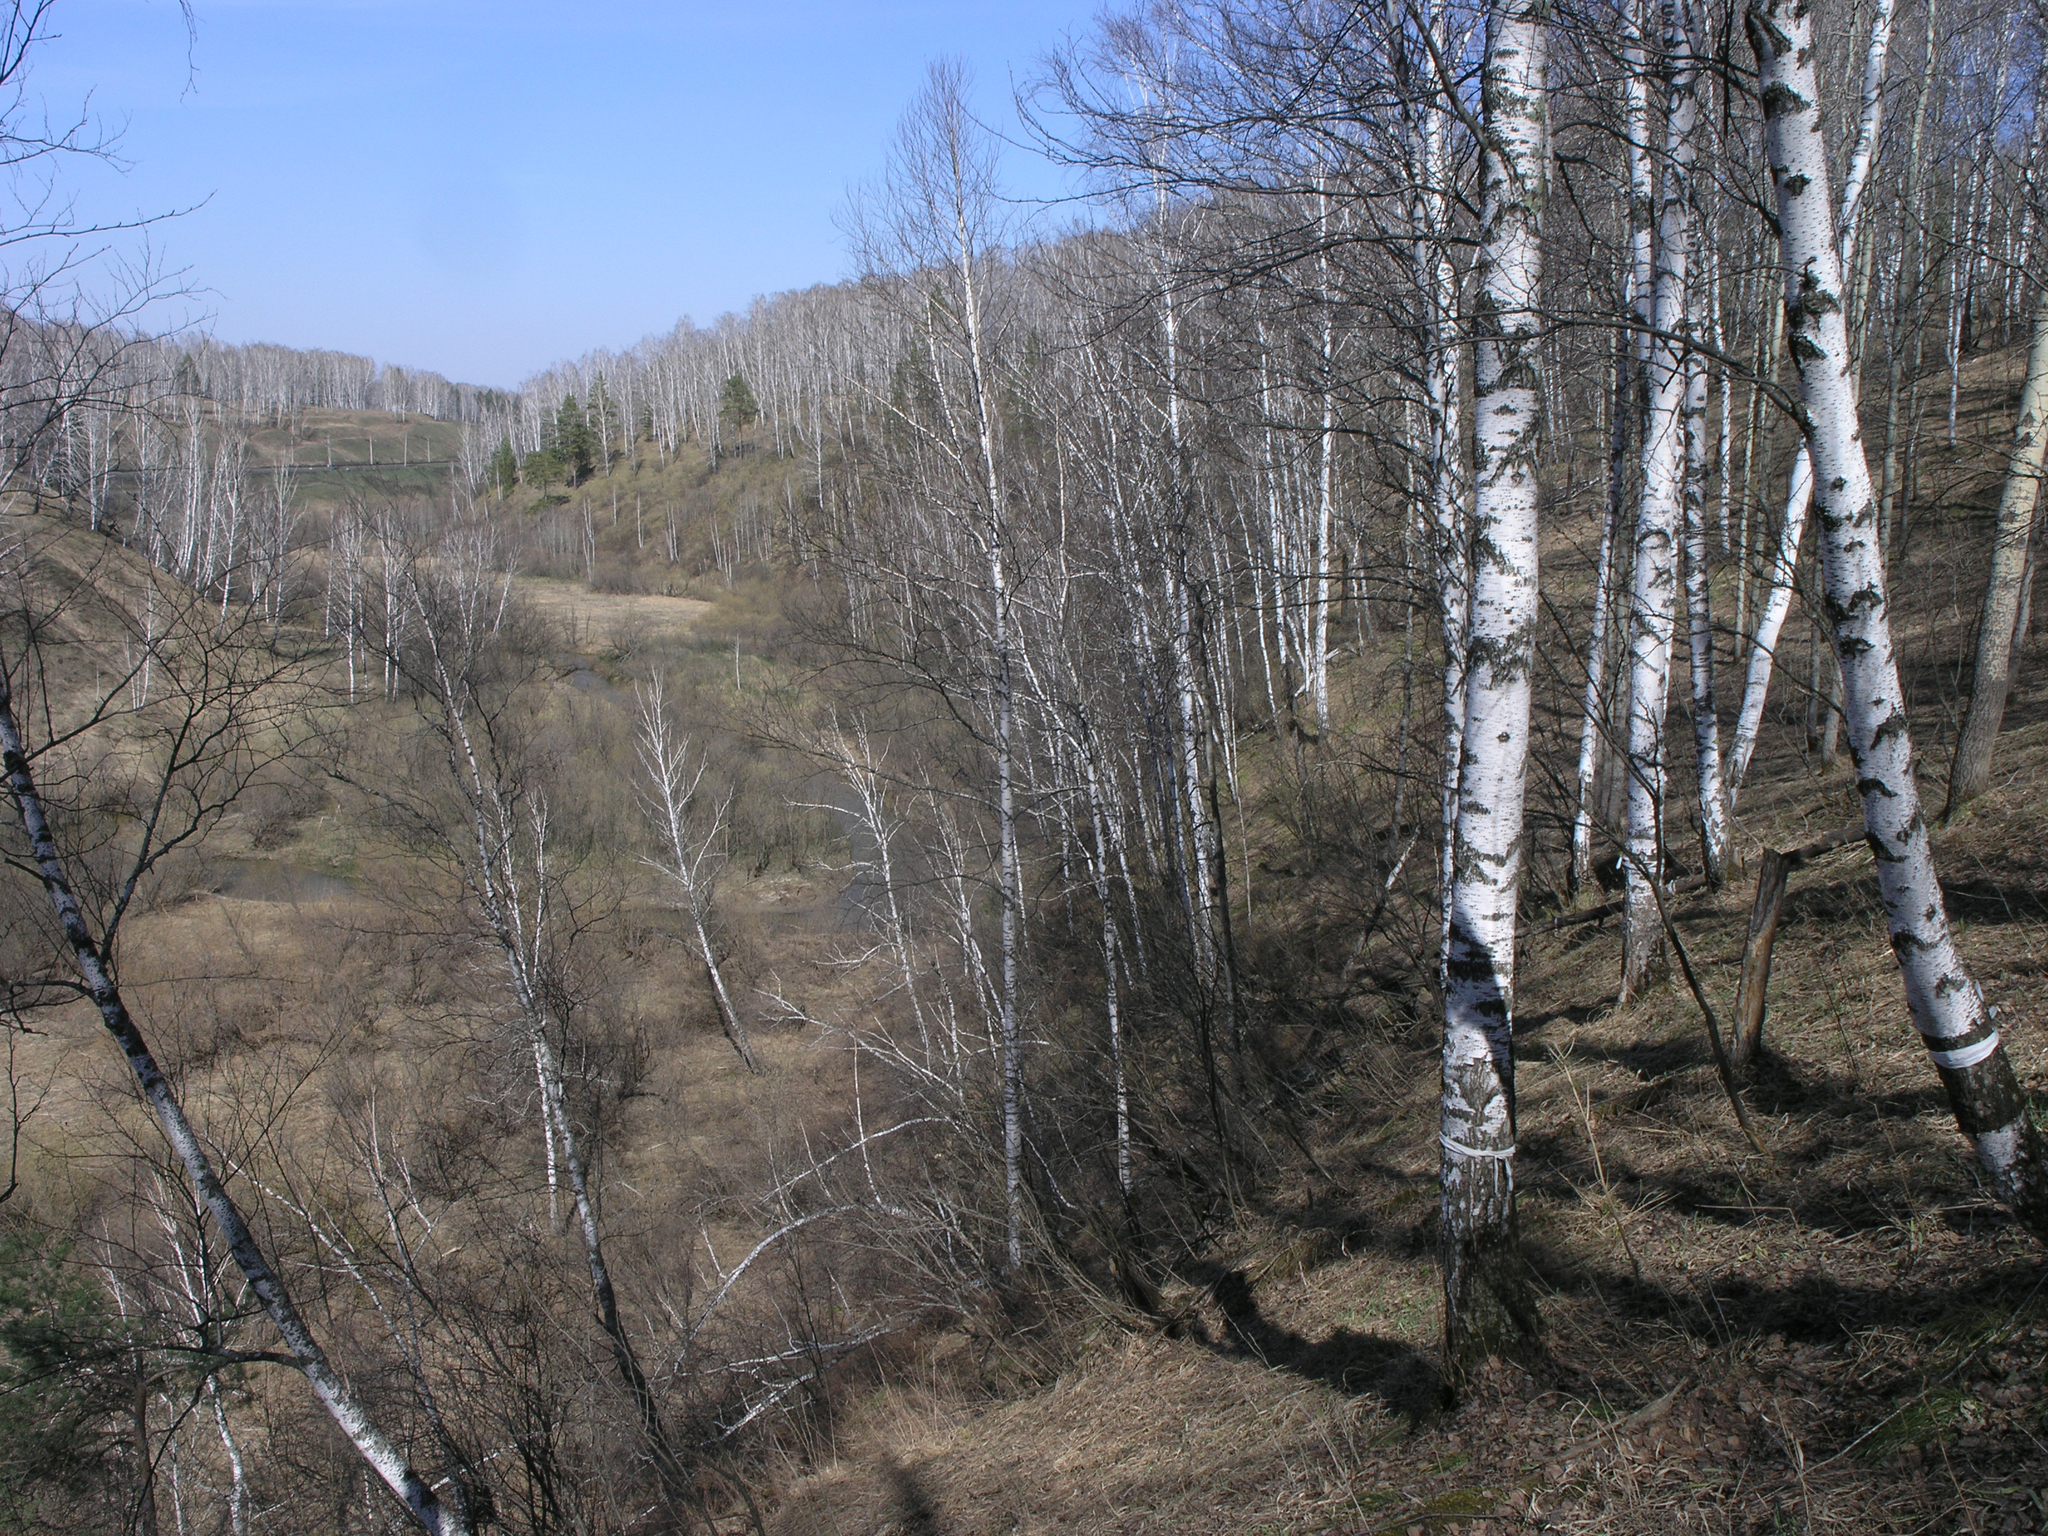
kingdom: Plantae
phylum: Tracheophyta
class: Magnoliopsida
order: Fagales
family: Betulaceae
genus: Betula
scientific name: Betula pendula
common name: Silver birch
